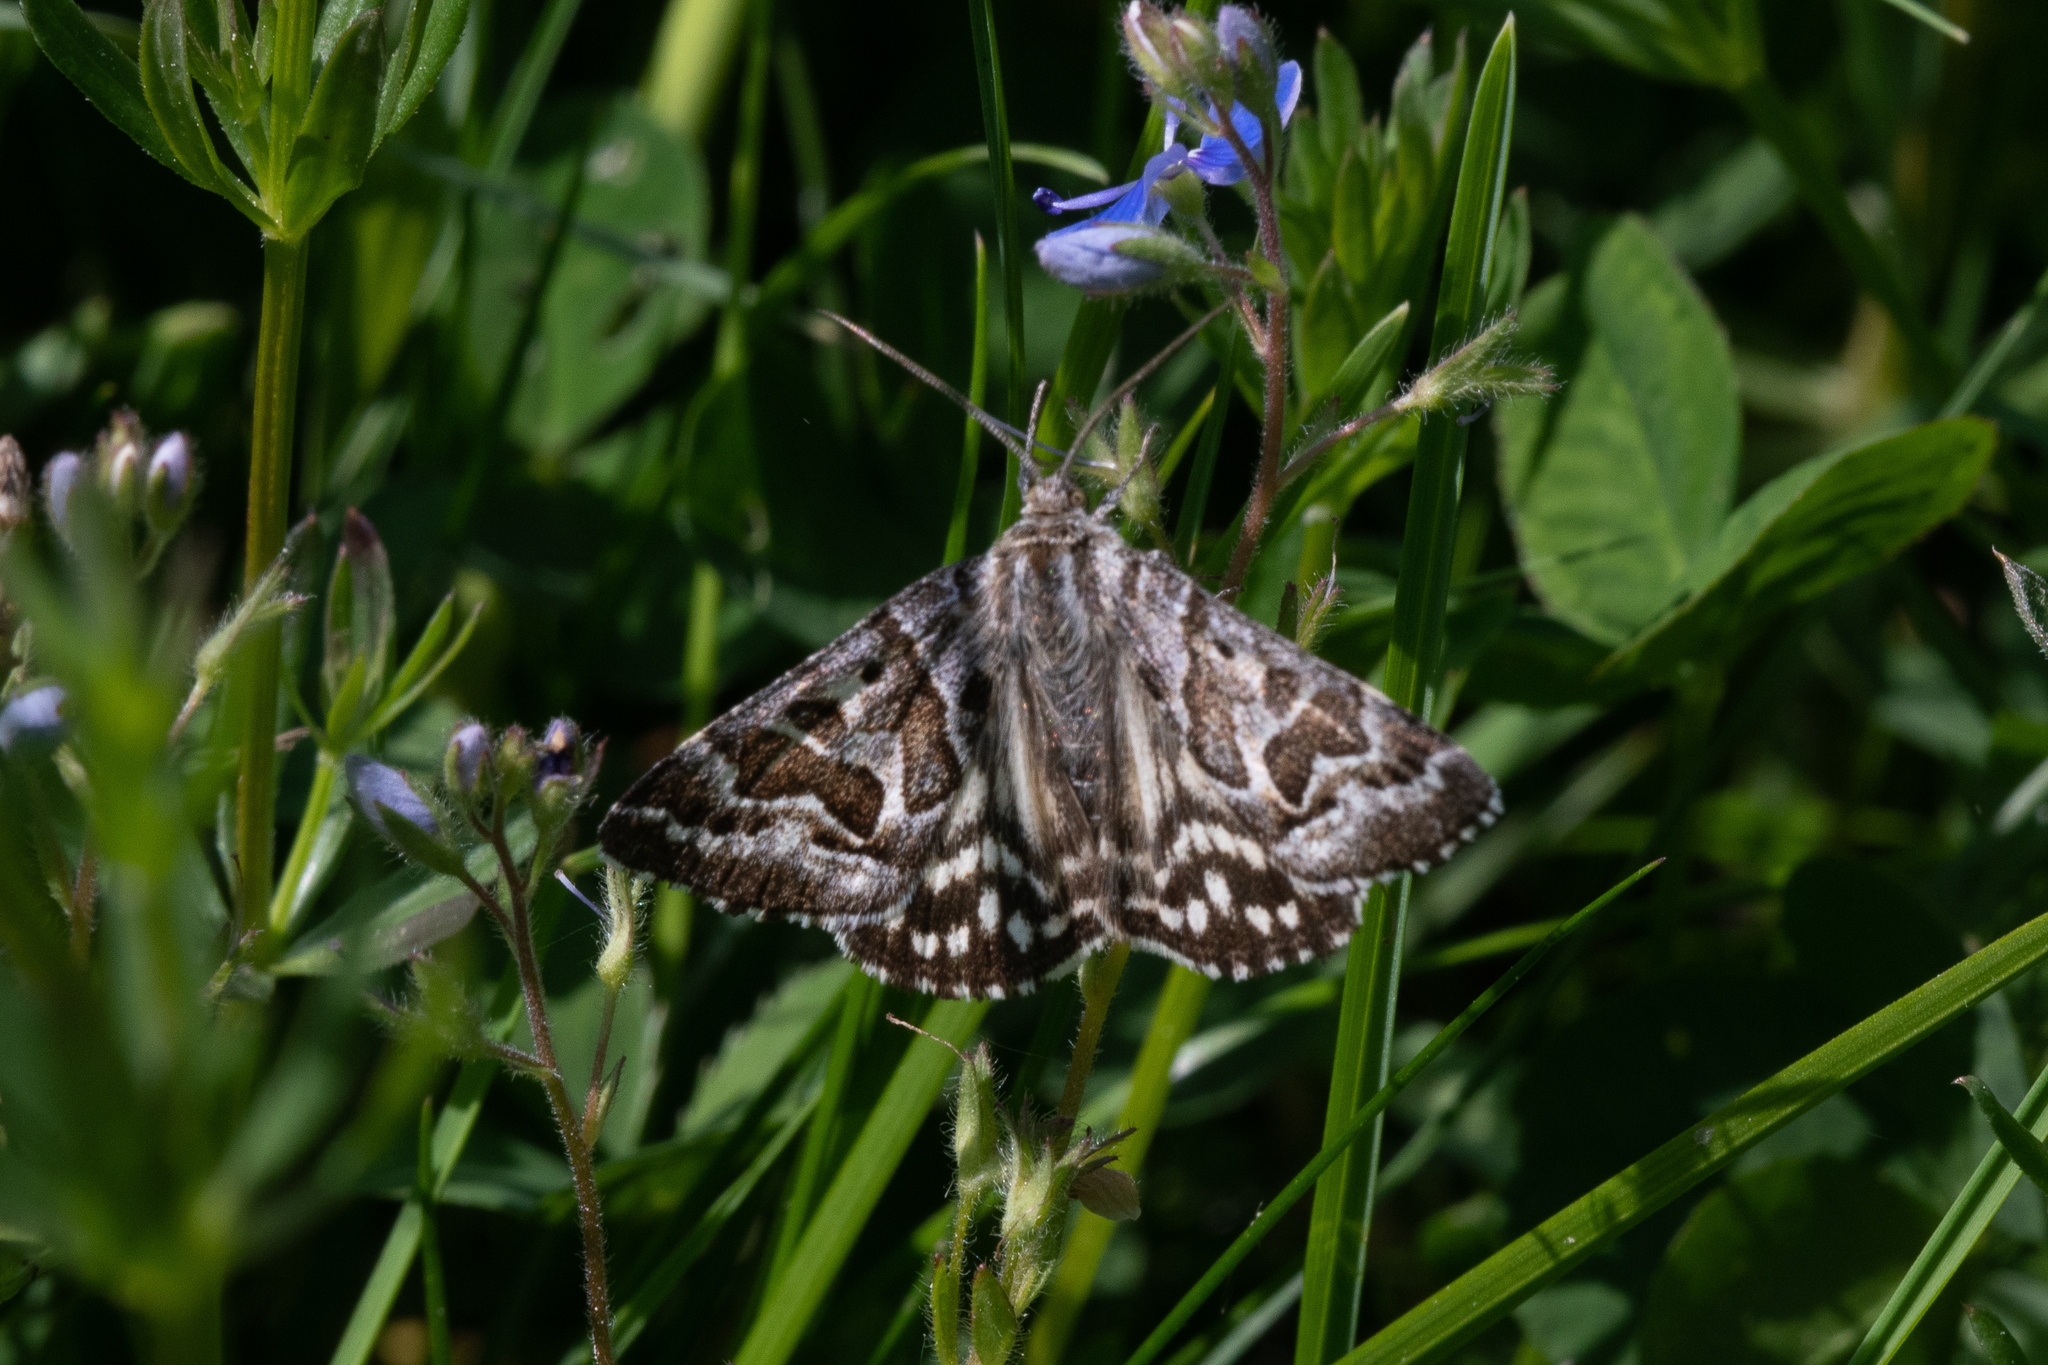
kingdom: Animalia
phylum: Arthropoda
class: Insecta
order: Lepidoptera
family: Erebidae
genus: Callistege
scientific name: Callistege mi
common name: Mother shipton
